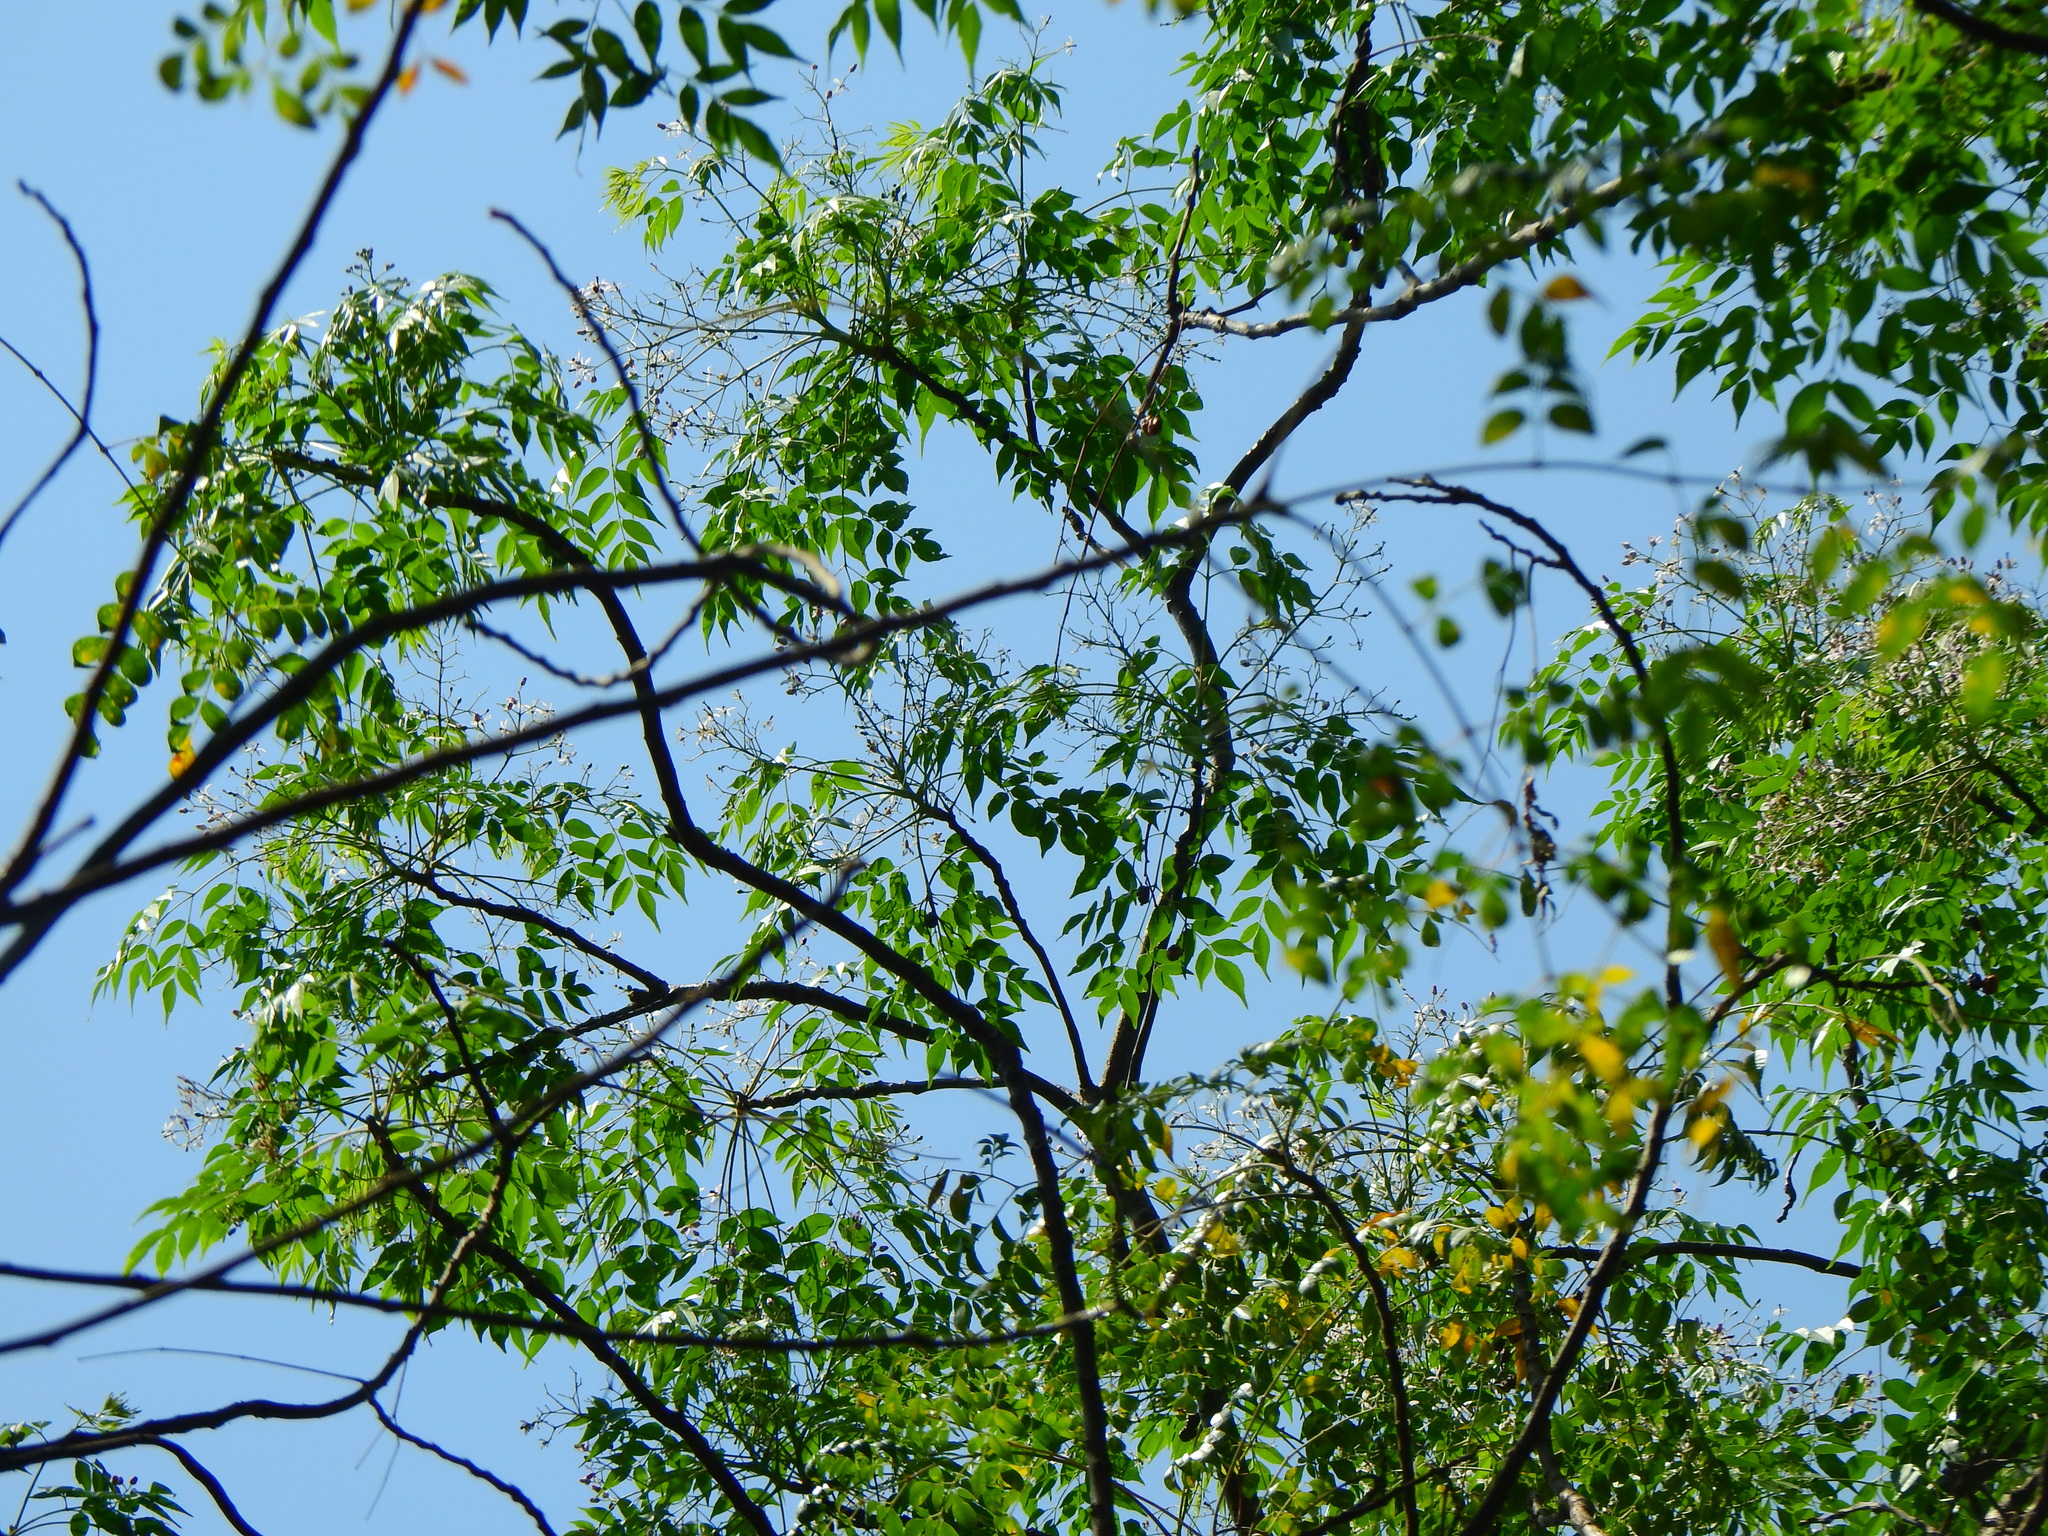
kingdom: Plantae
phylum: Tracheophyta
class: Magnoliopsida
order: Sapindales
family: Meliaceae
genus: Melia
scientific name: Melia azedarach
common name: Chinaberrytree
